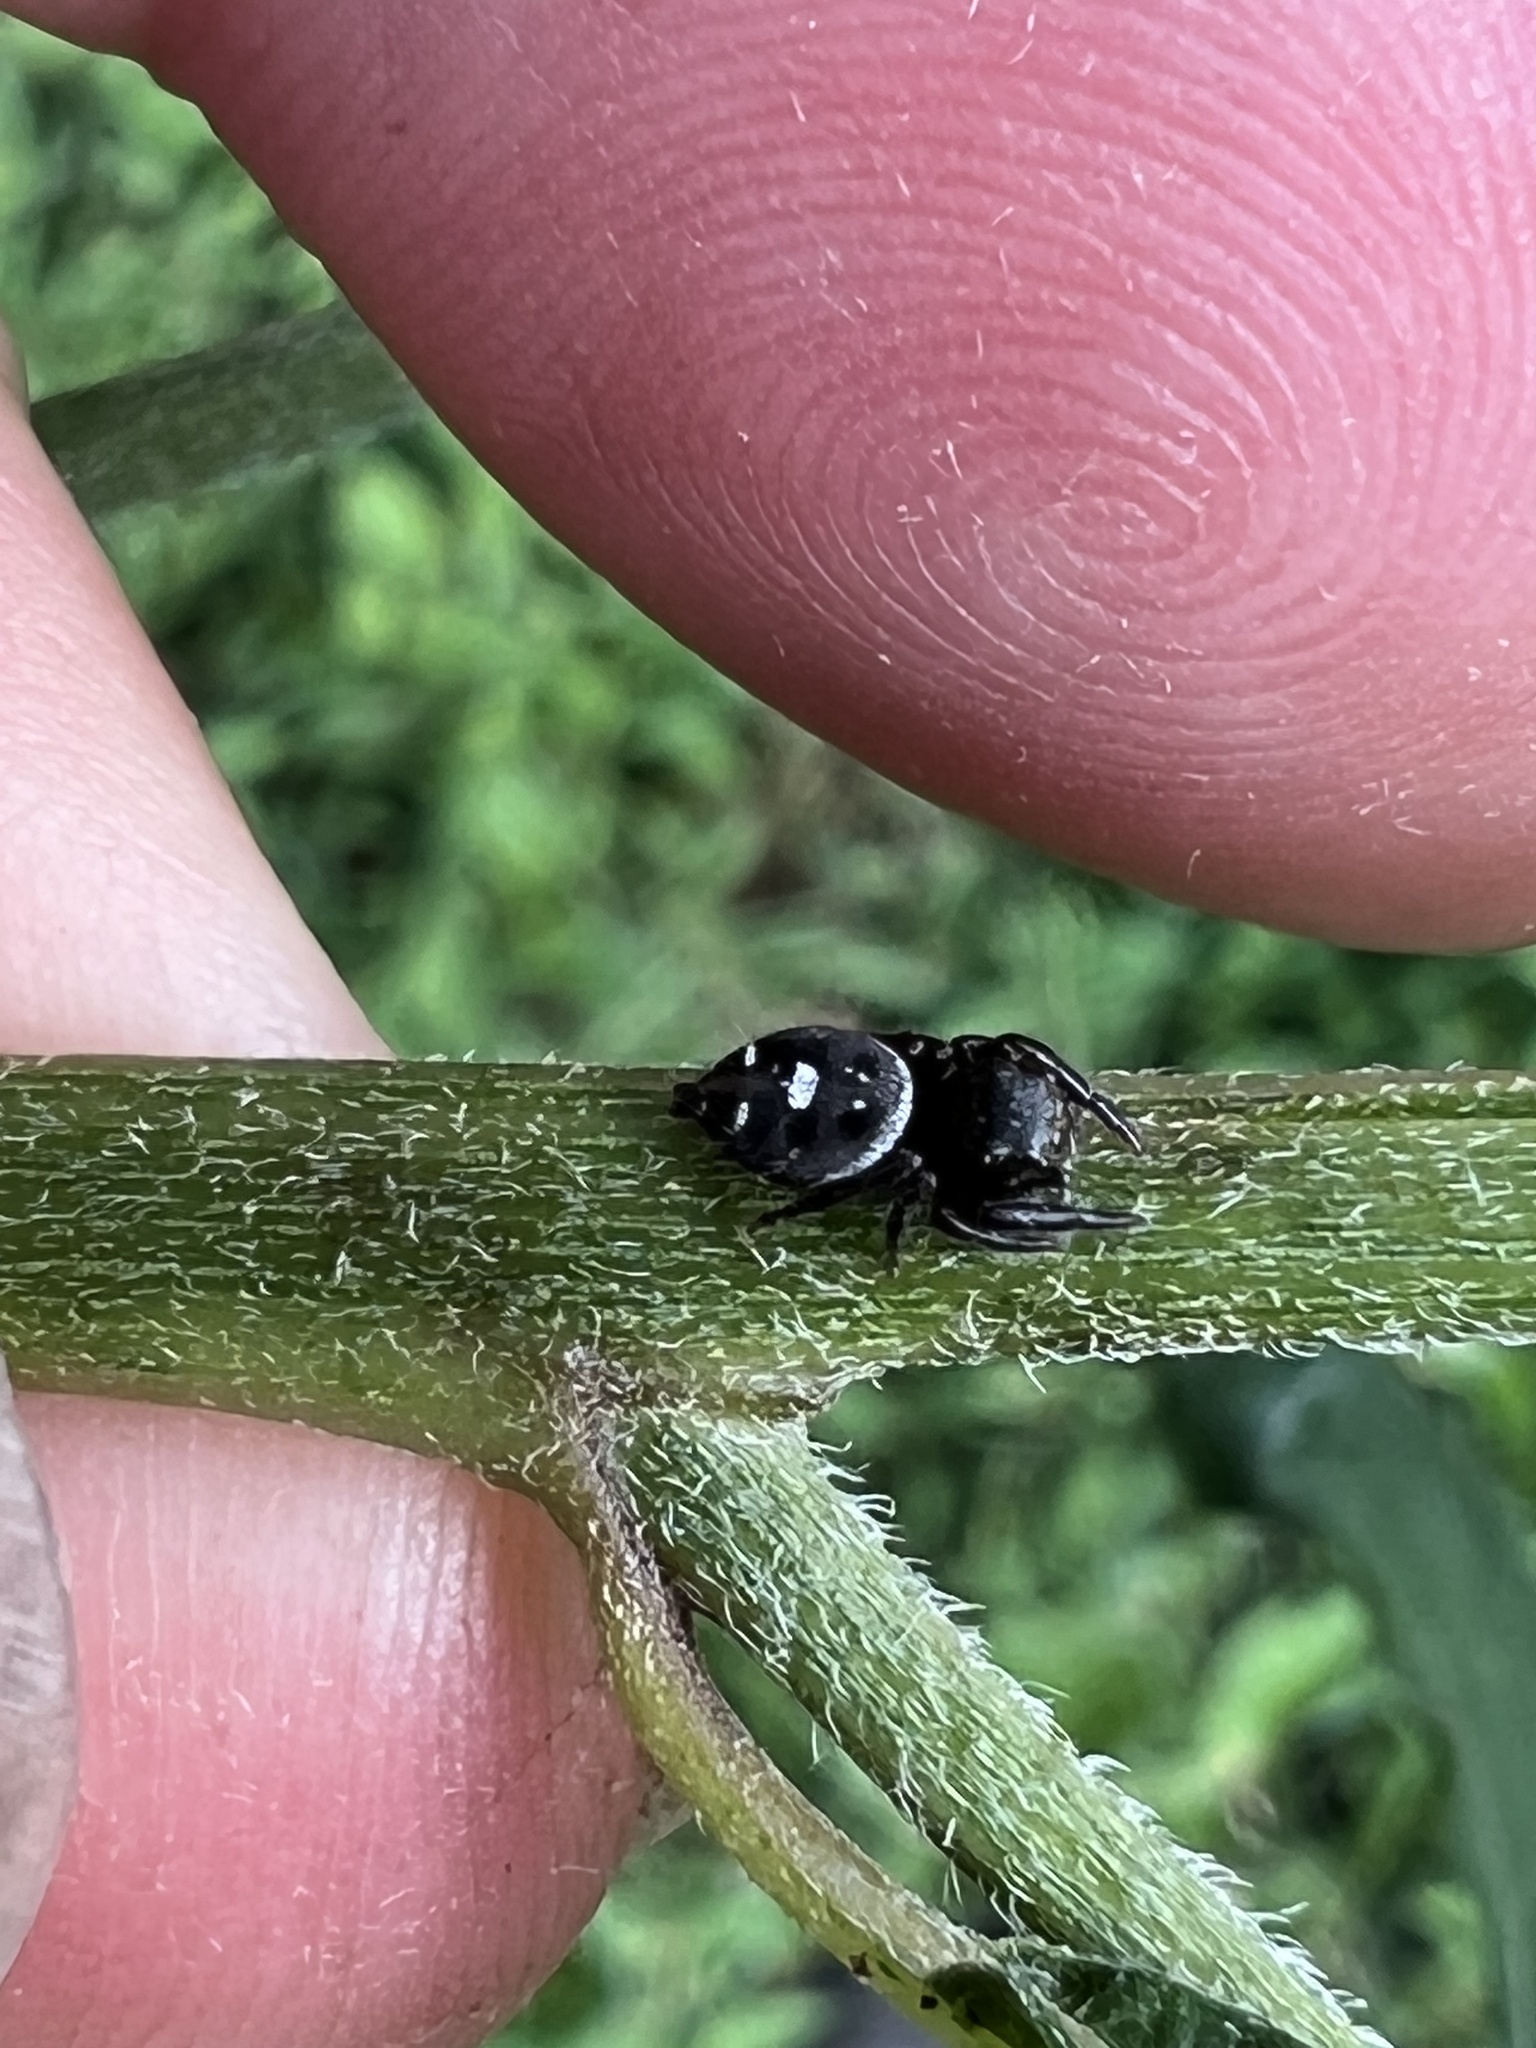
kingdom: Animalia
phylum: Arthropoda
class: Arachnida
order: Araneae
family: Salticidae
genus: Phidippus
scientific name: Phidippus audax
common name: Bold jumper
